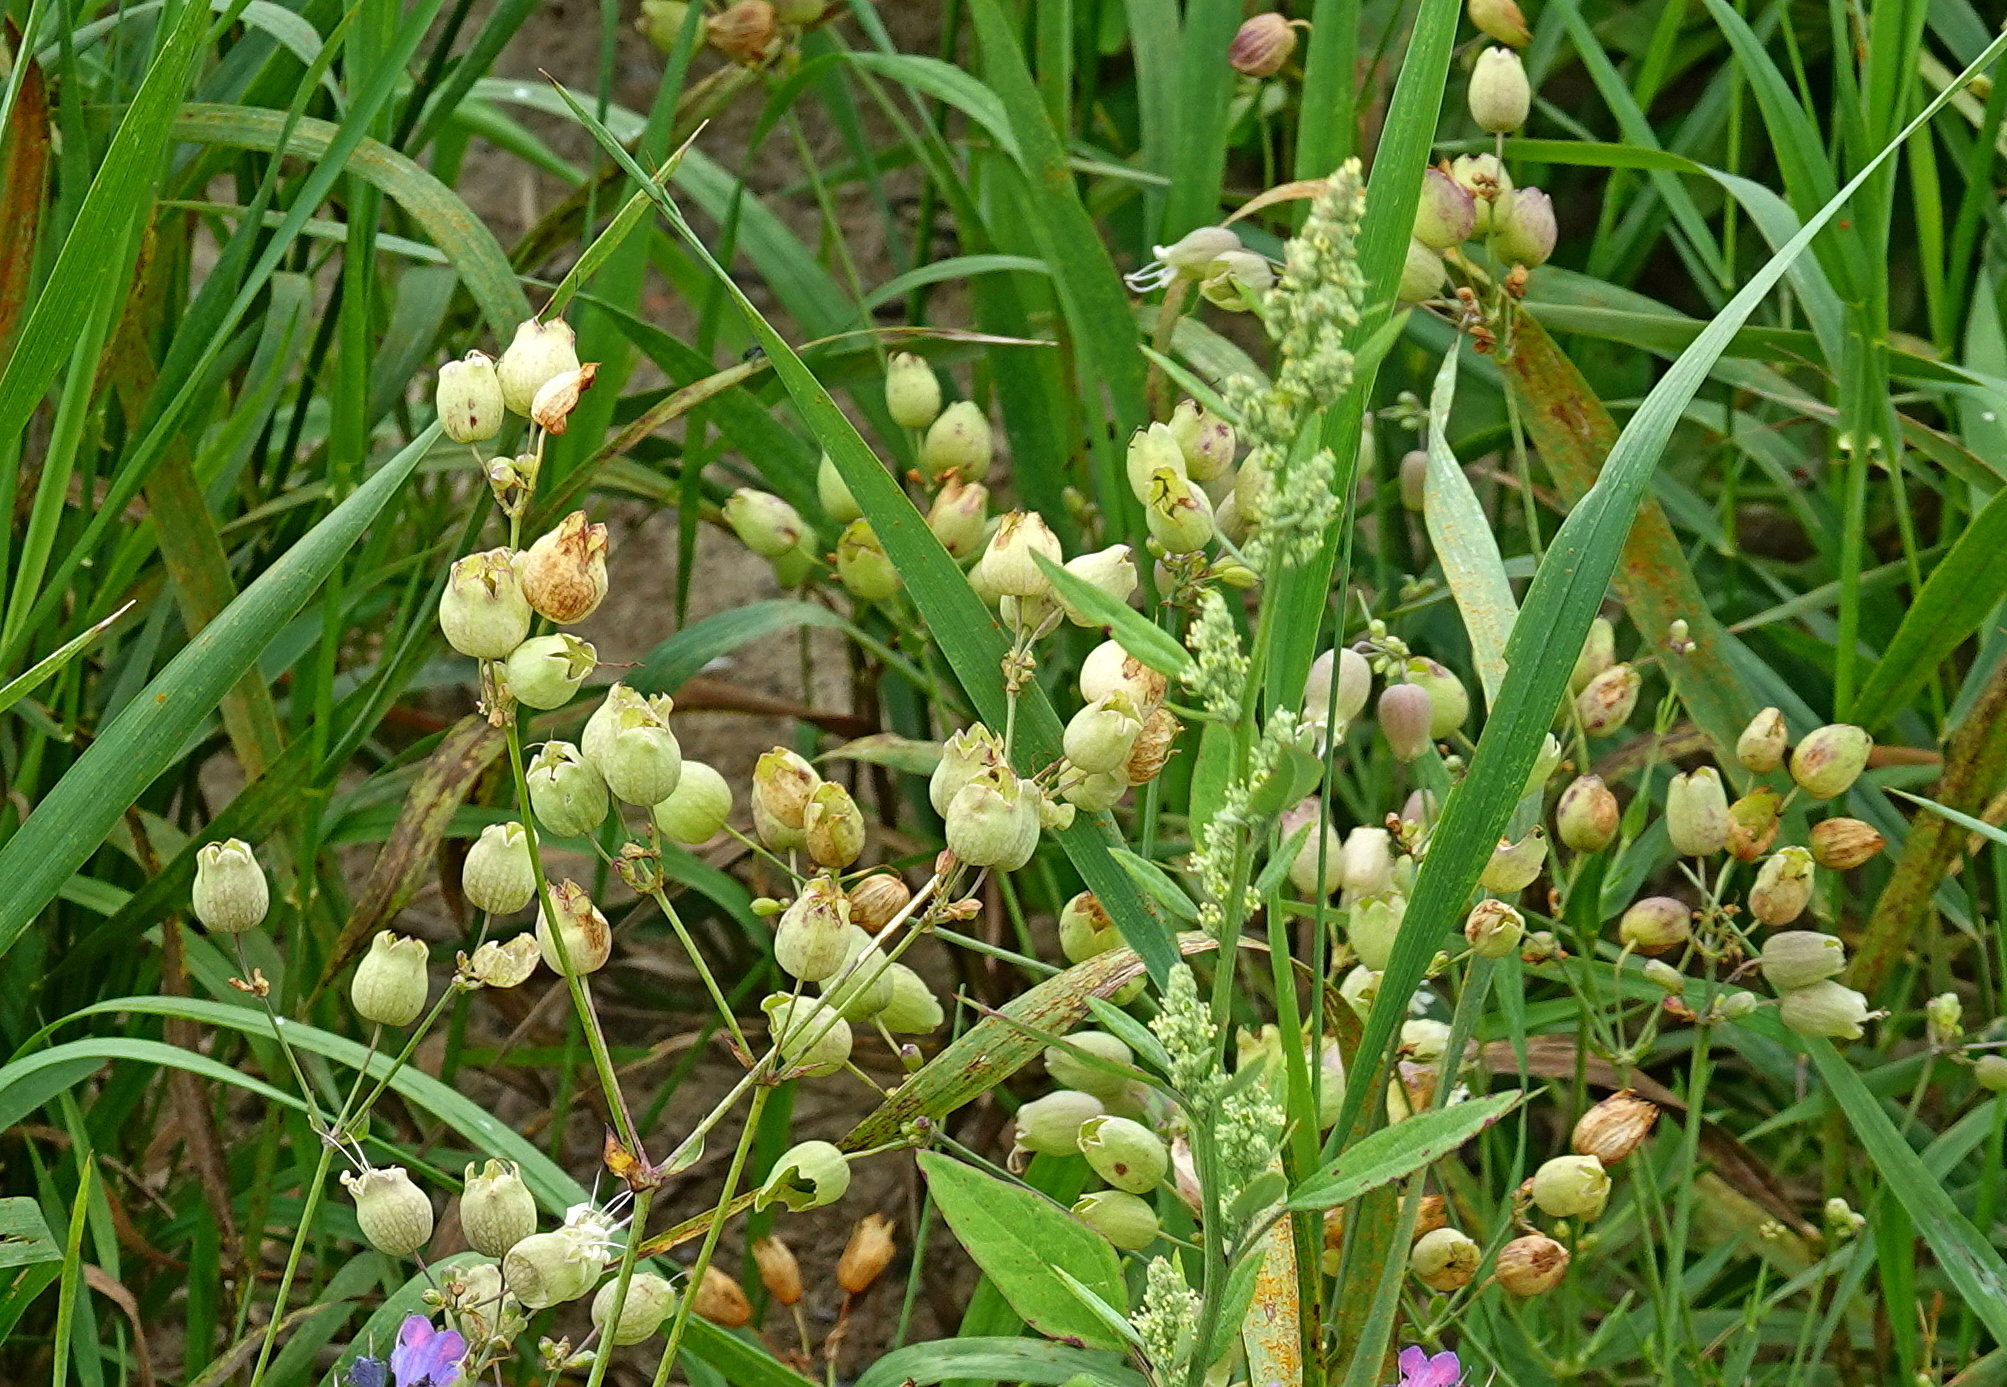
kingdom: Plantae
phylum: Tracheophyta
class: Magnoliopsida
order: Caryophyllales
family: Caryophyllaceae
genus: Silene
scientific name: Silene vulgaris
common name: Bladder campion
